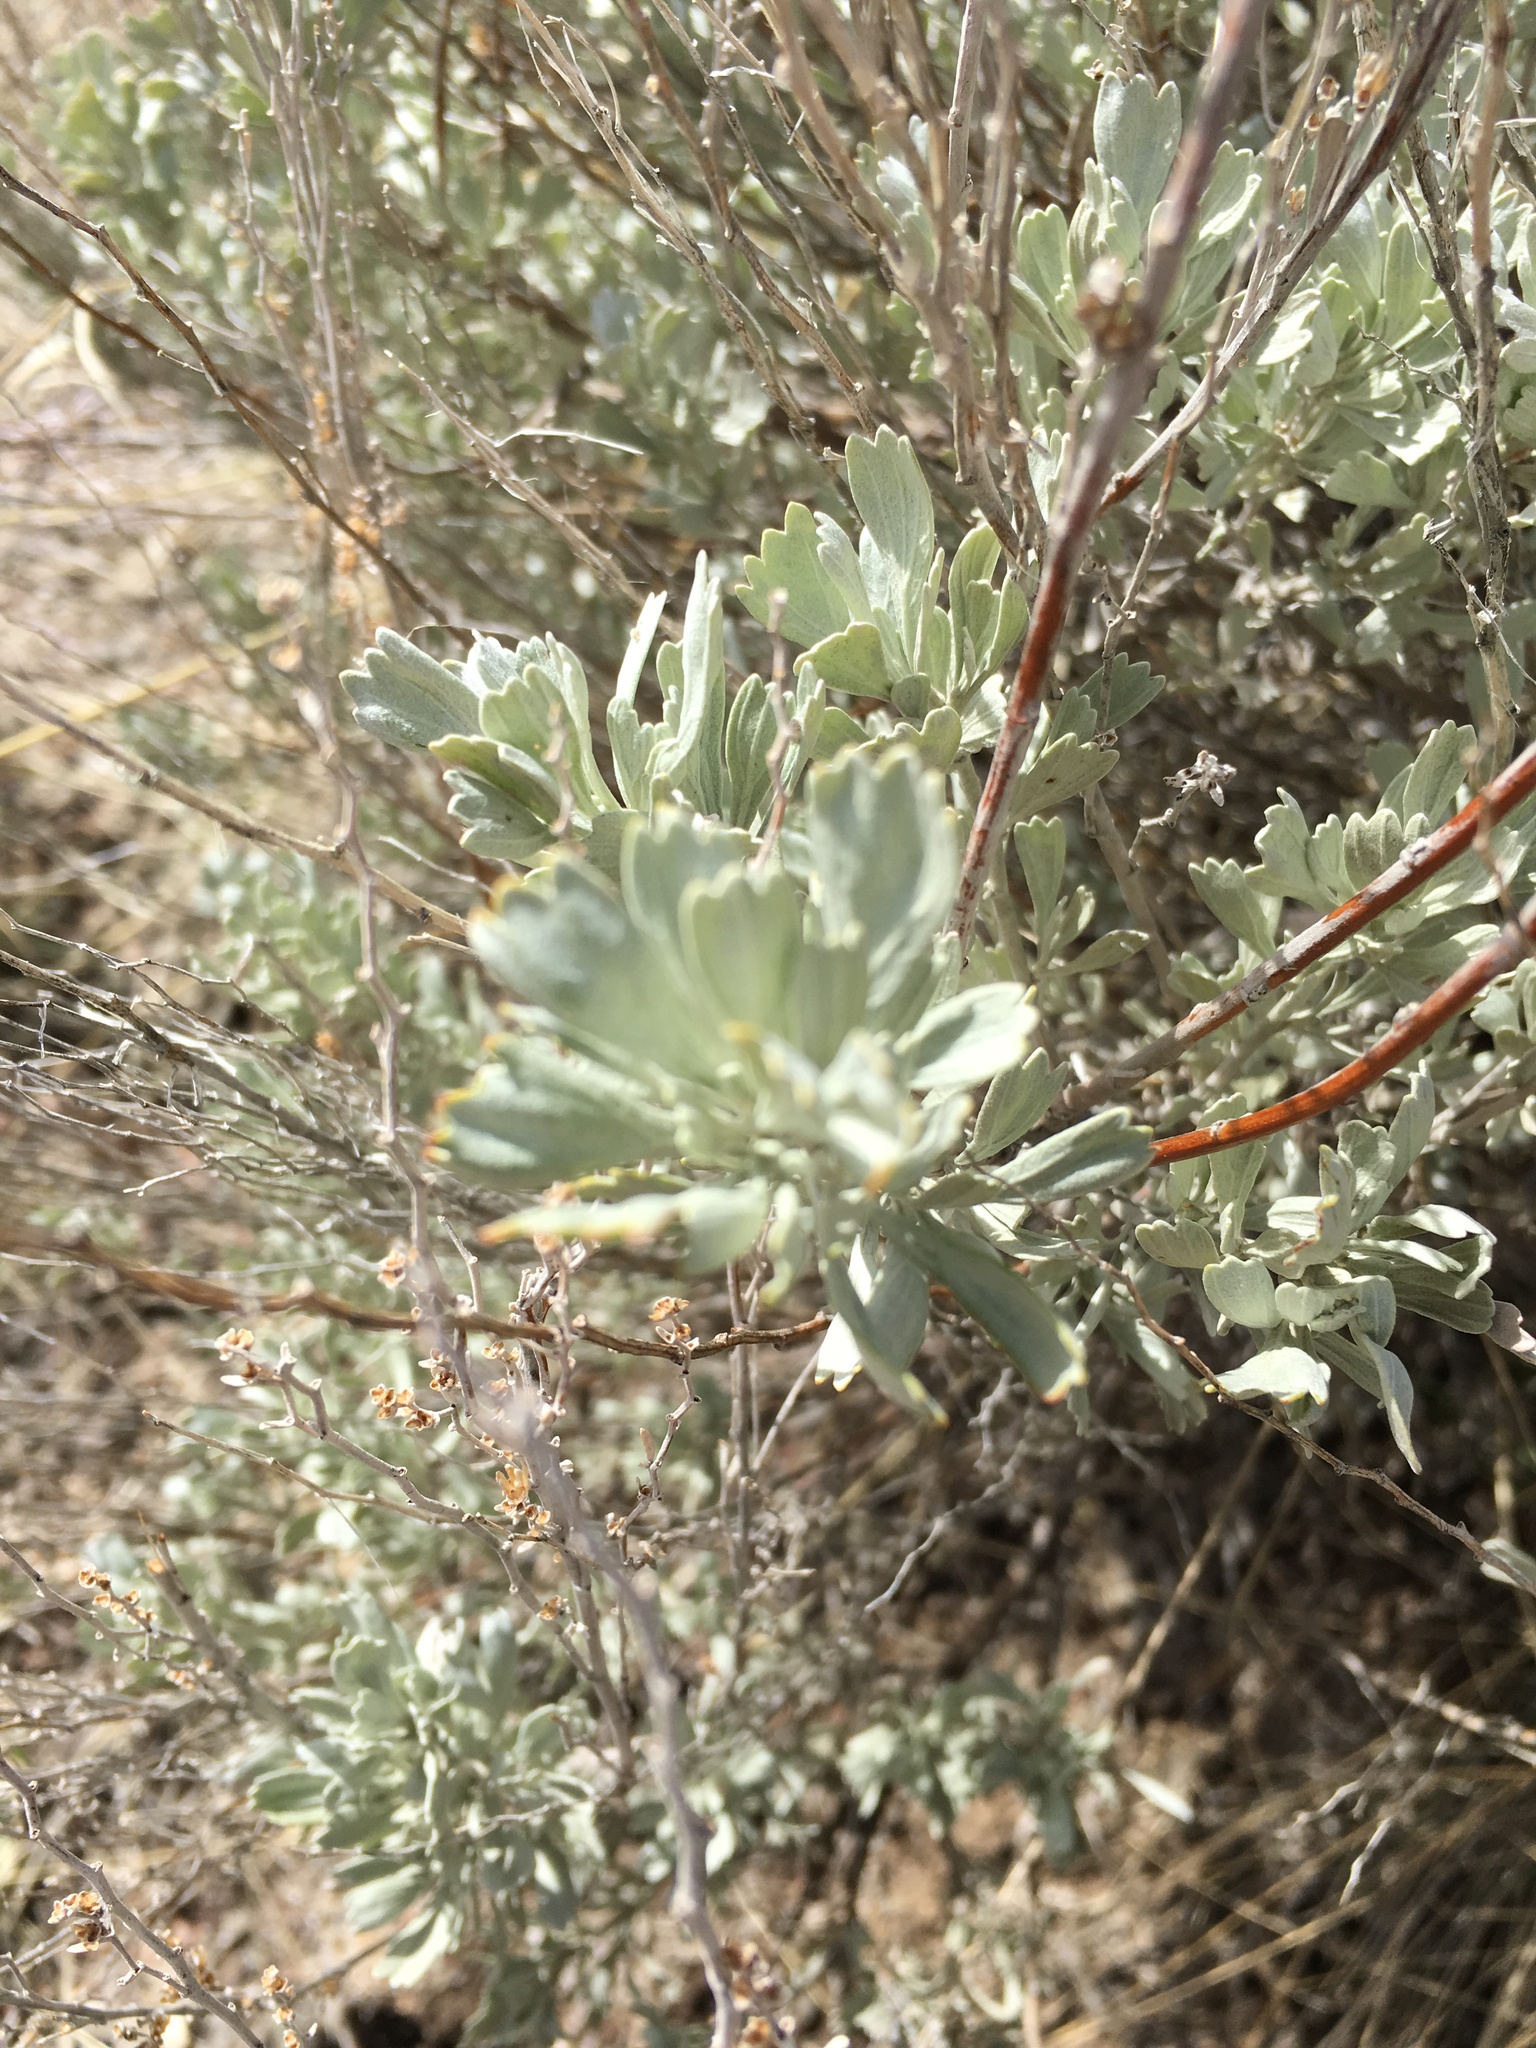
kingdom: Plantae
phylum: Tracheophyta
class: Magnoliopsida
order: Asterales
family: Asteraceae
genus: Artemisia
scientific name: Artemisia tridentata
